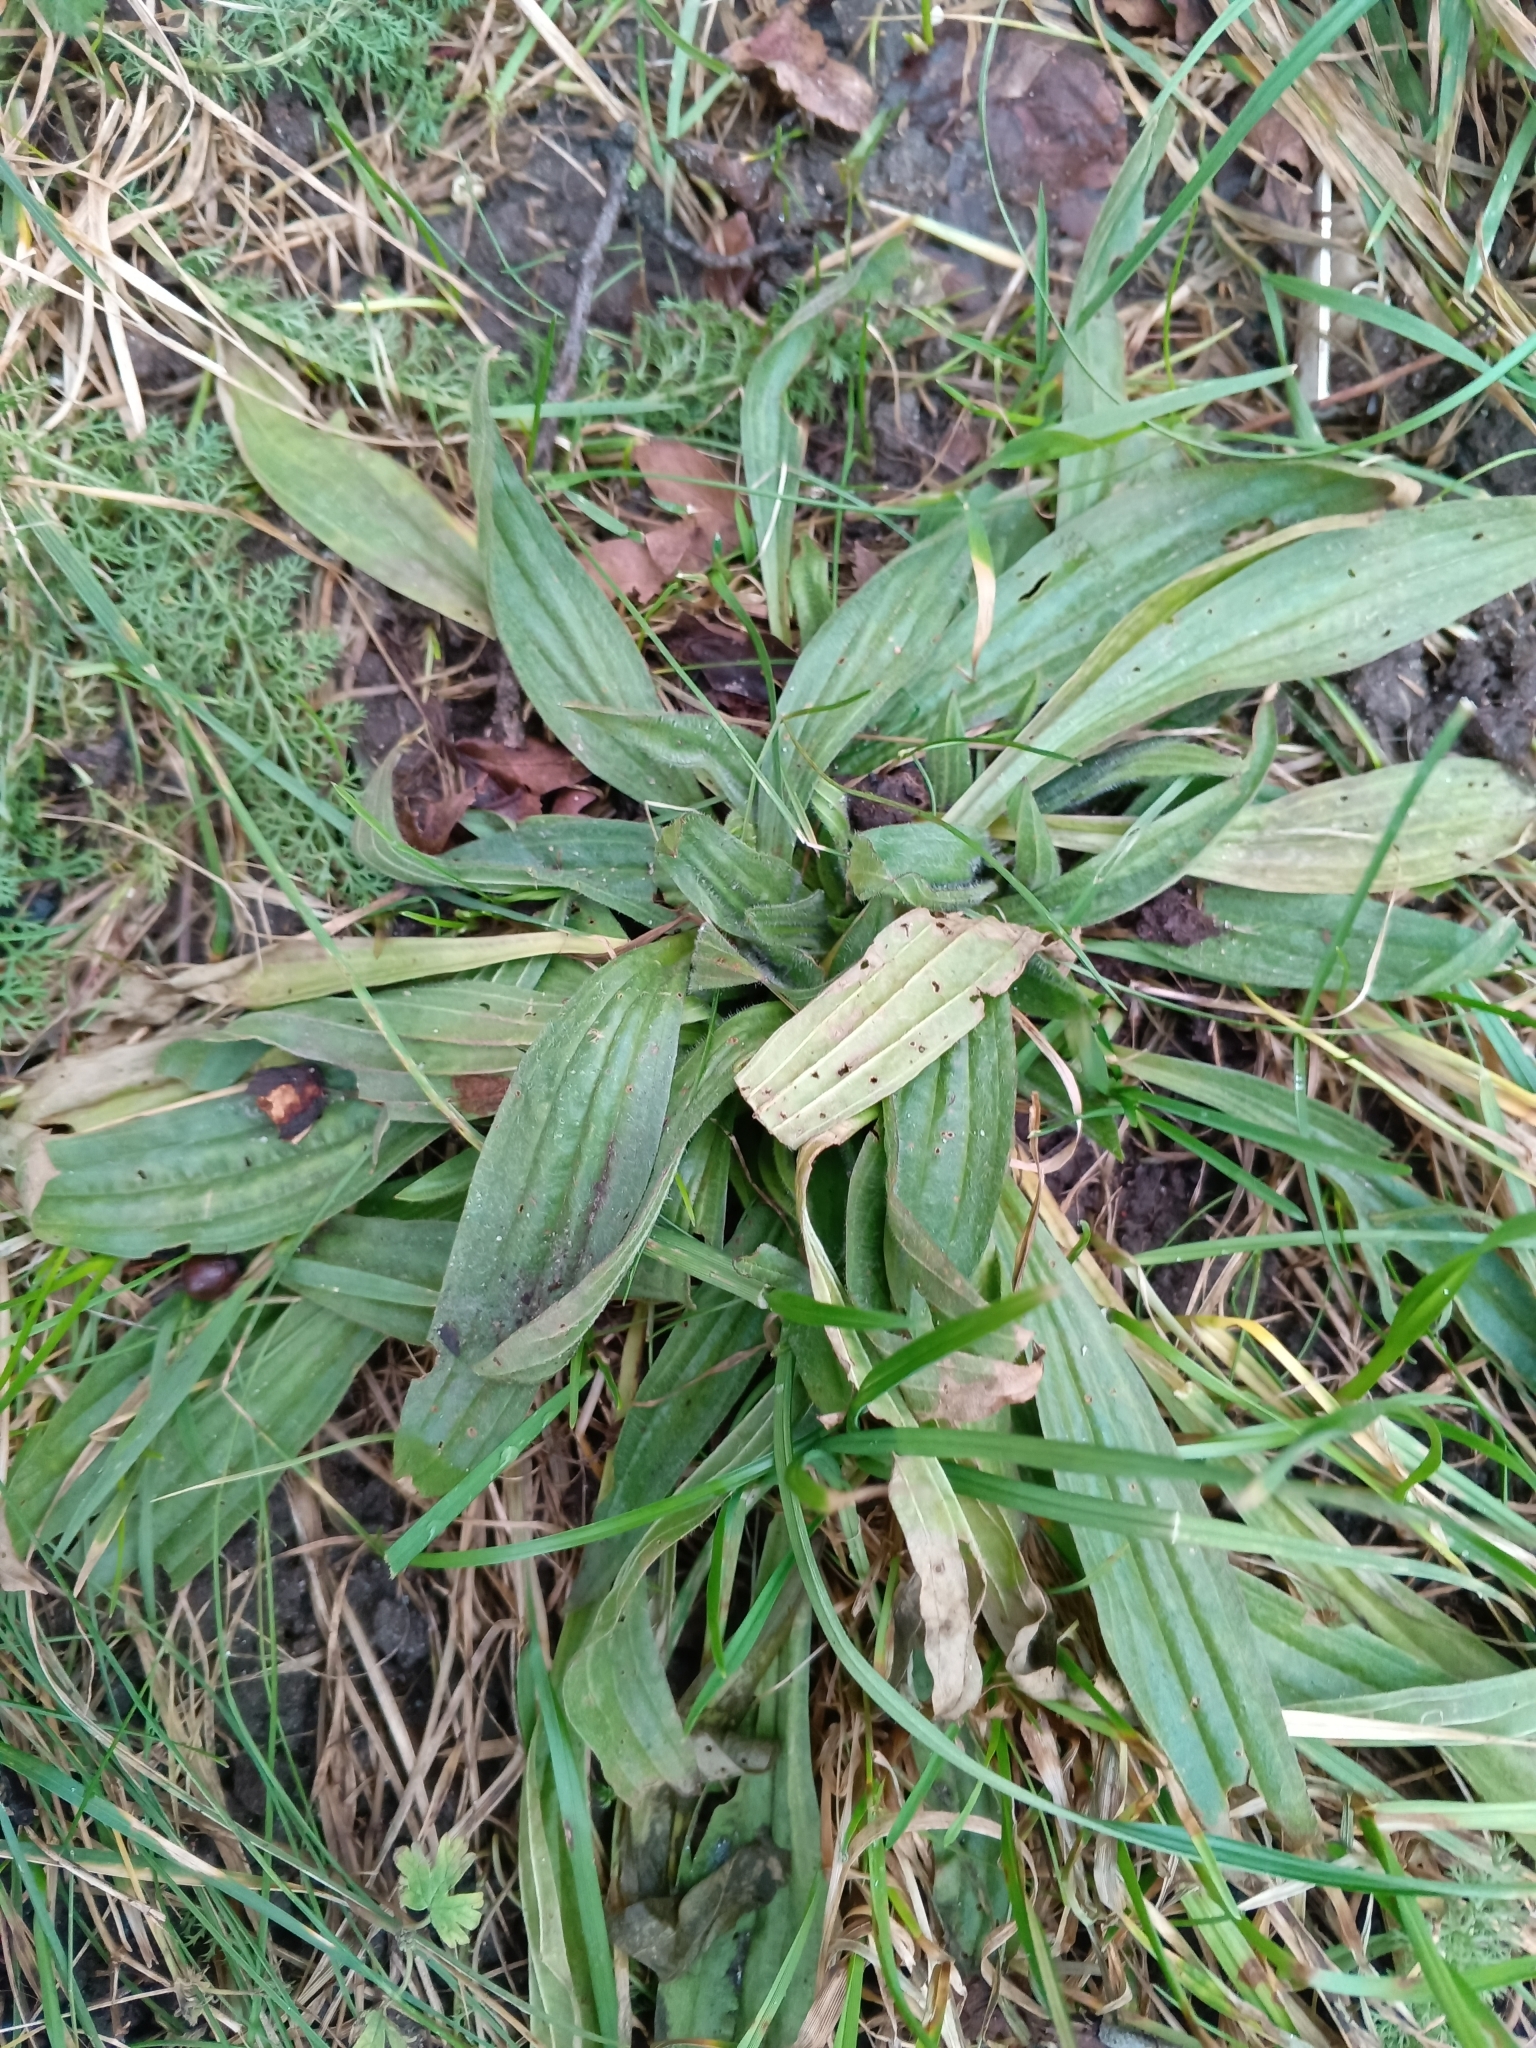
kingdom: Plantae
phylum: Tracheophyta
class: Magnoliopsida
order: Lamiales
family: Plantaginaceae
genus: Plantago
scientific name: Plantago lanceolata
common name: Ribwort plantain
